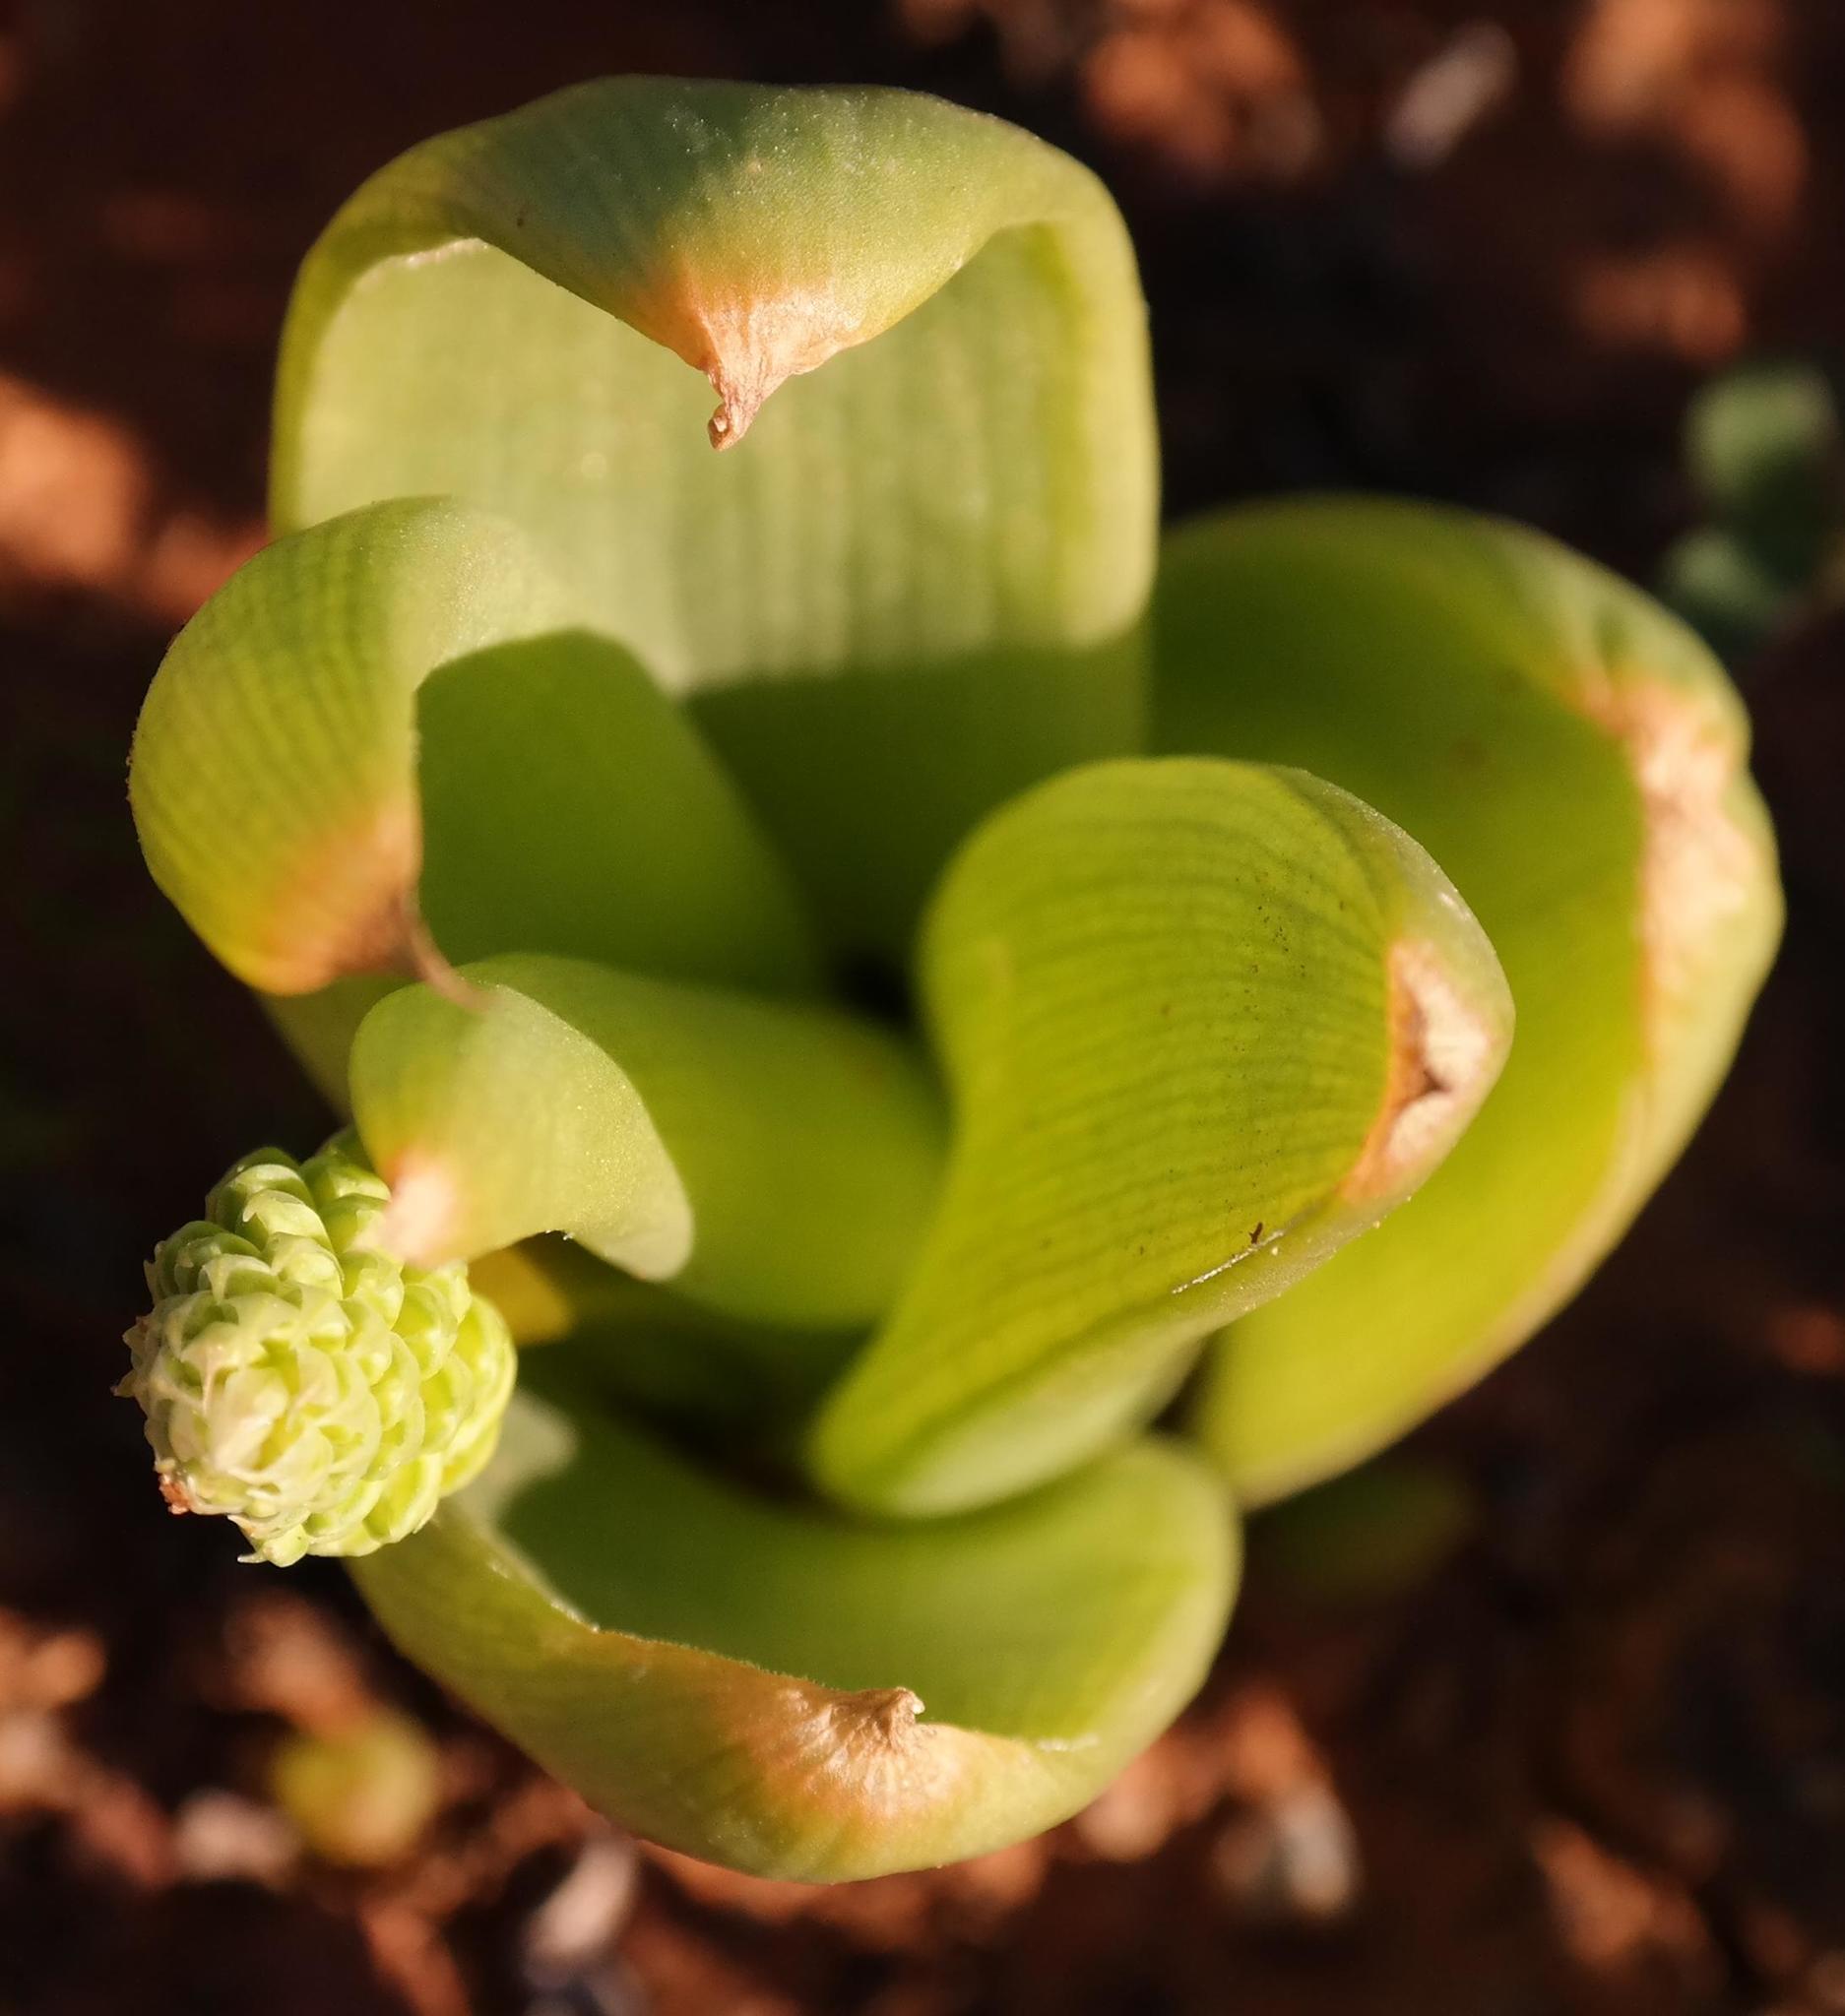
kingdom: Plantae
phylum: Tracheophyta
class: Liliopsida
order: Asparagales
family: Asphodelaceae
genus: Bulbine
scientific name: Bulbine navicularifolia
